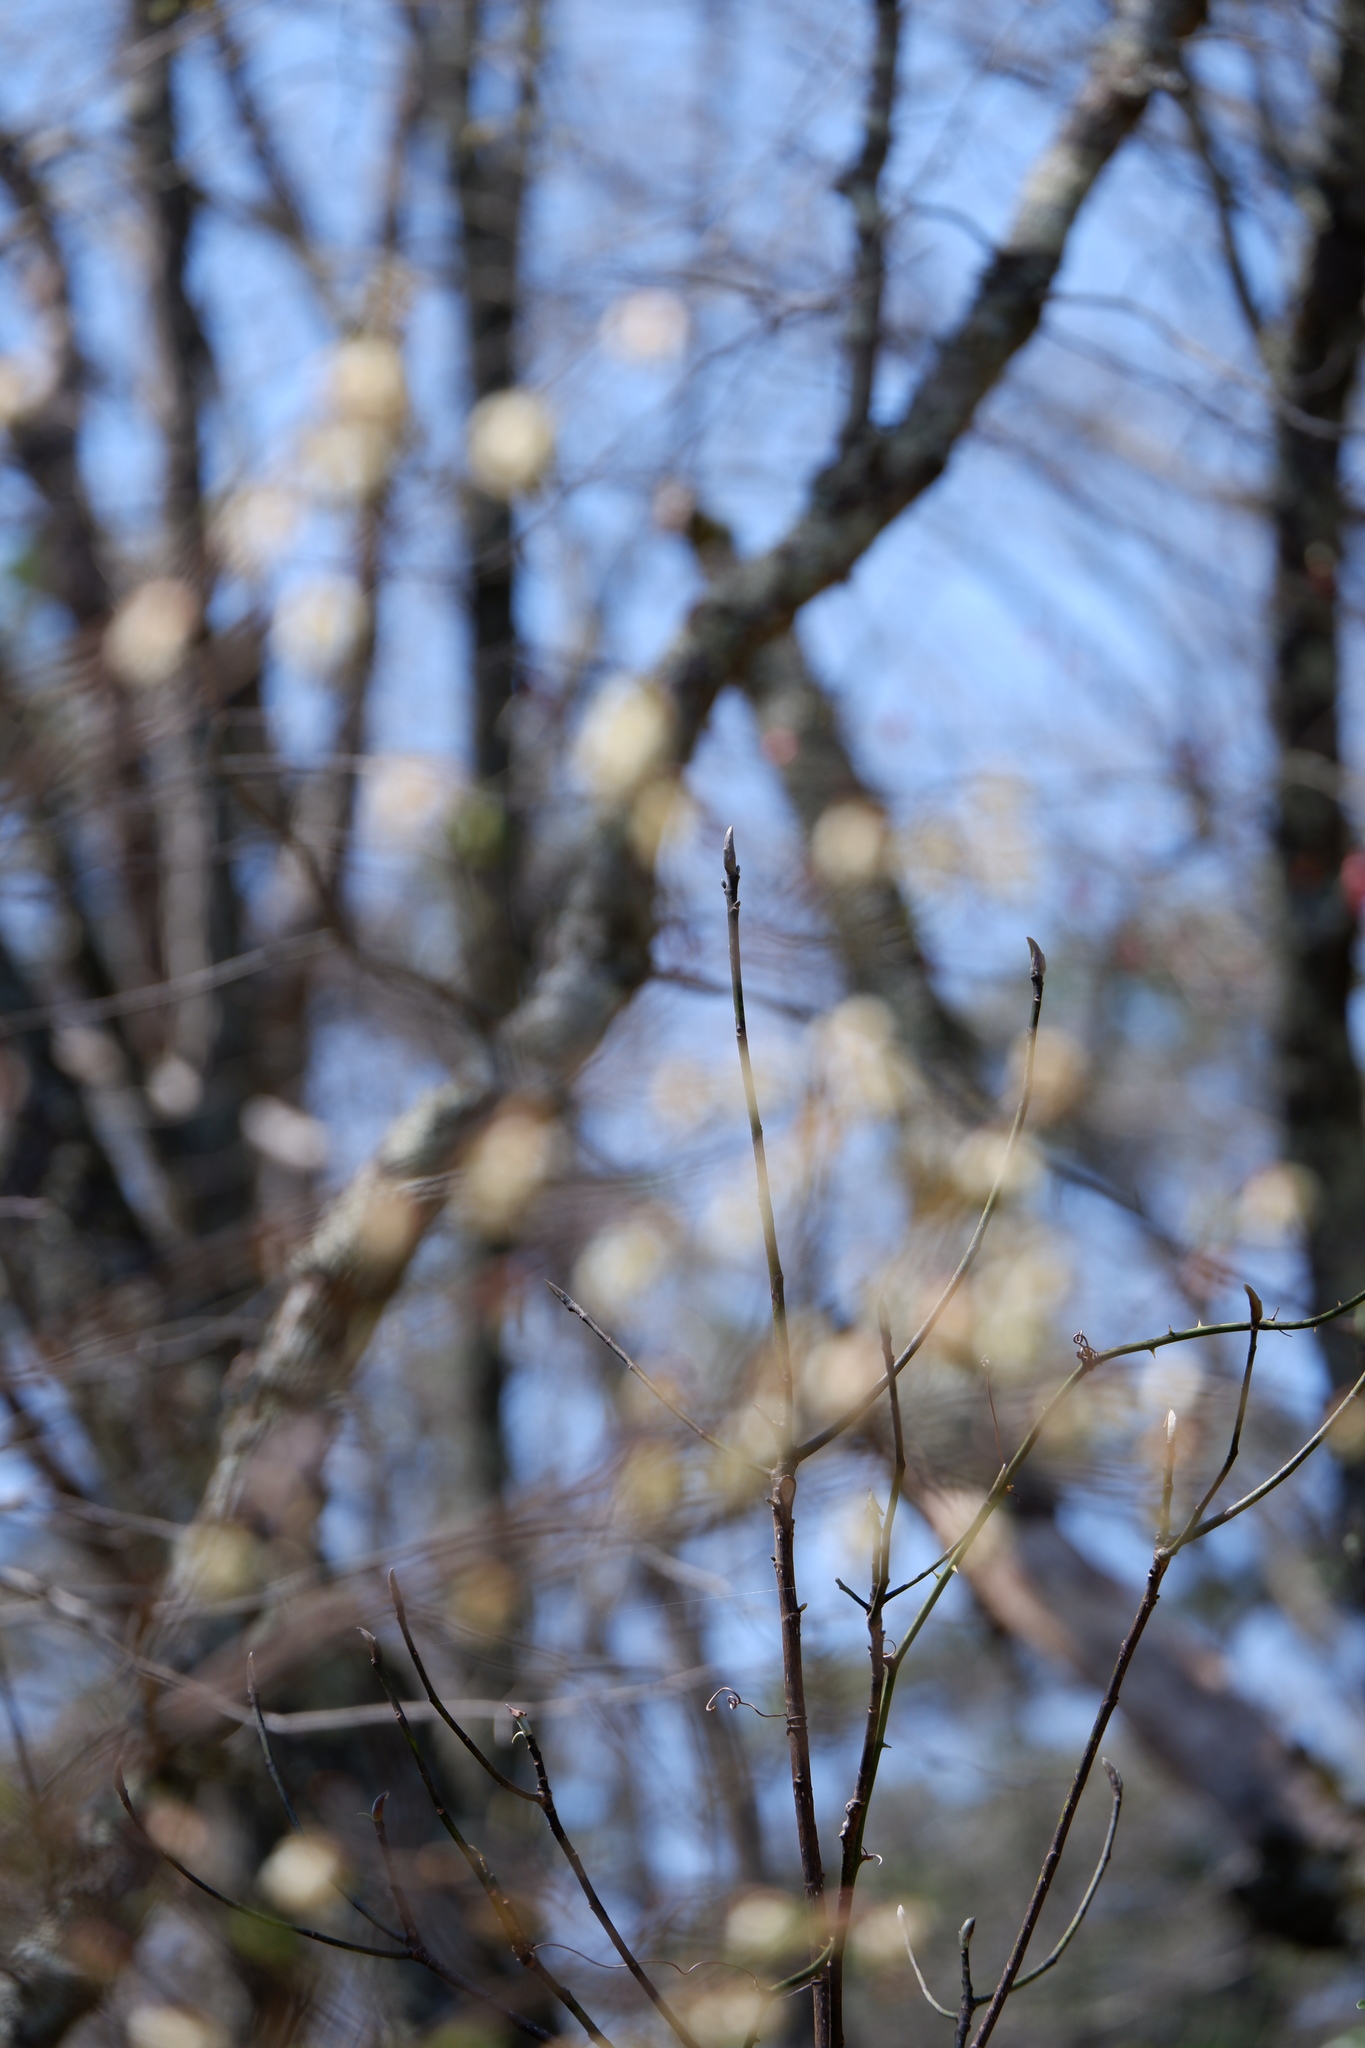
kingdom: Plantae
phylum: Tracheophyta
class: Magnoliopsida
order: Magnoliales
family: Magnoliaceae
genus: Magnolia
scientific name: Magnolia virginiana
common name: Swamp bay
